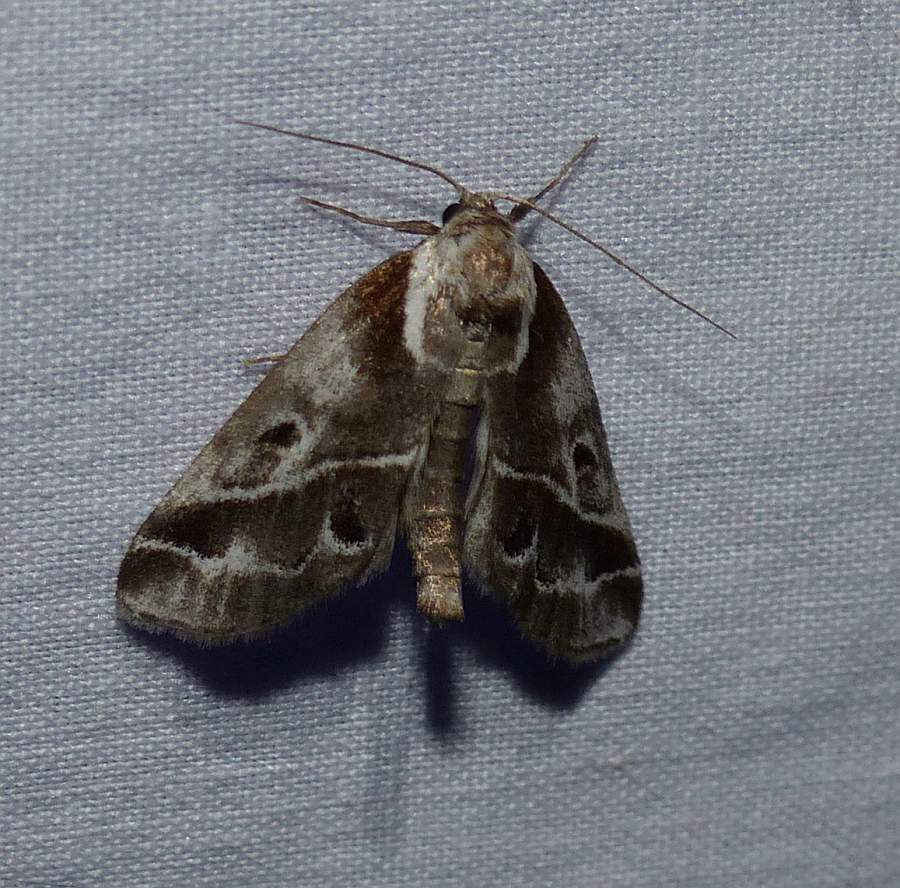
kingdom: Animalia
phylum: Arthropoda
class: Insecta
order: Lepidoptera
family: Nolidae
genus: Baileya
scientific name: Baileya doubledayi
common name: Doubleday's baileya moth
